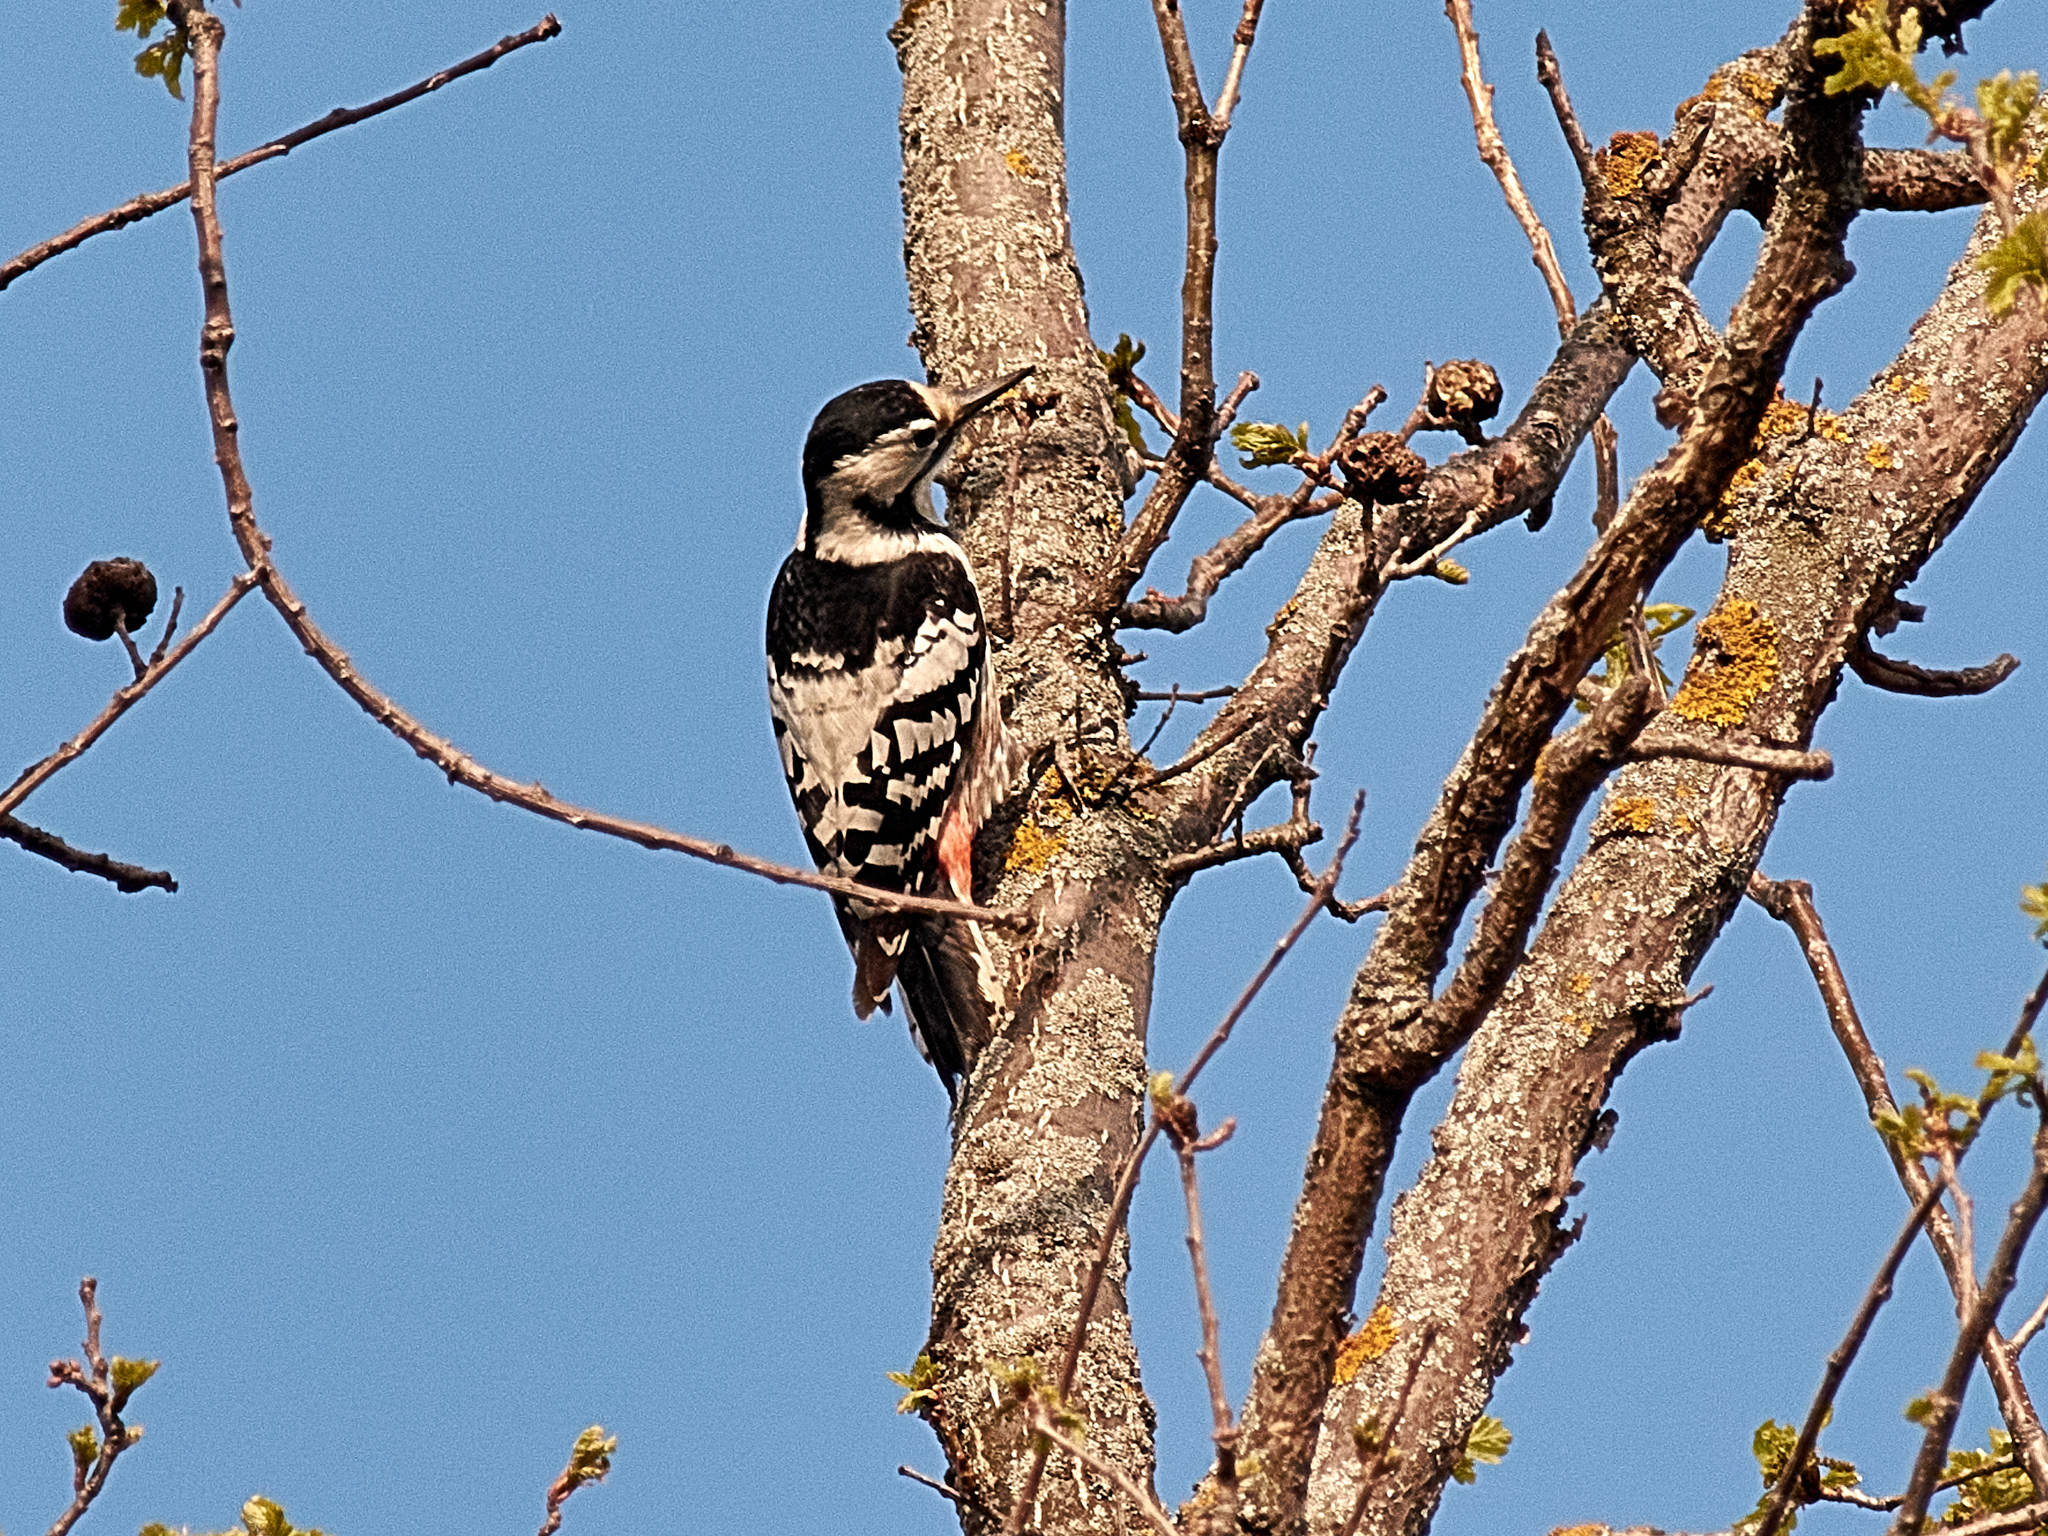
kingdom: Animalia
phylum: Chordata
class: Aves
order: Piciformes
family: Picidae
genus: Dendrocopos
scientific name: Dendrocopos leucotos
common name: White-backed woodpecker
